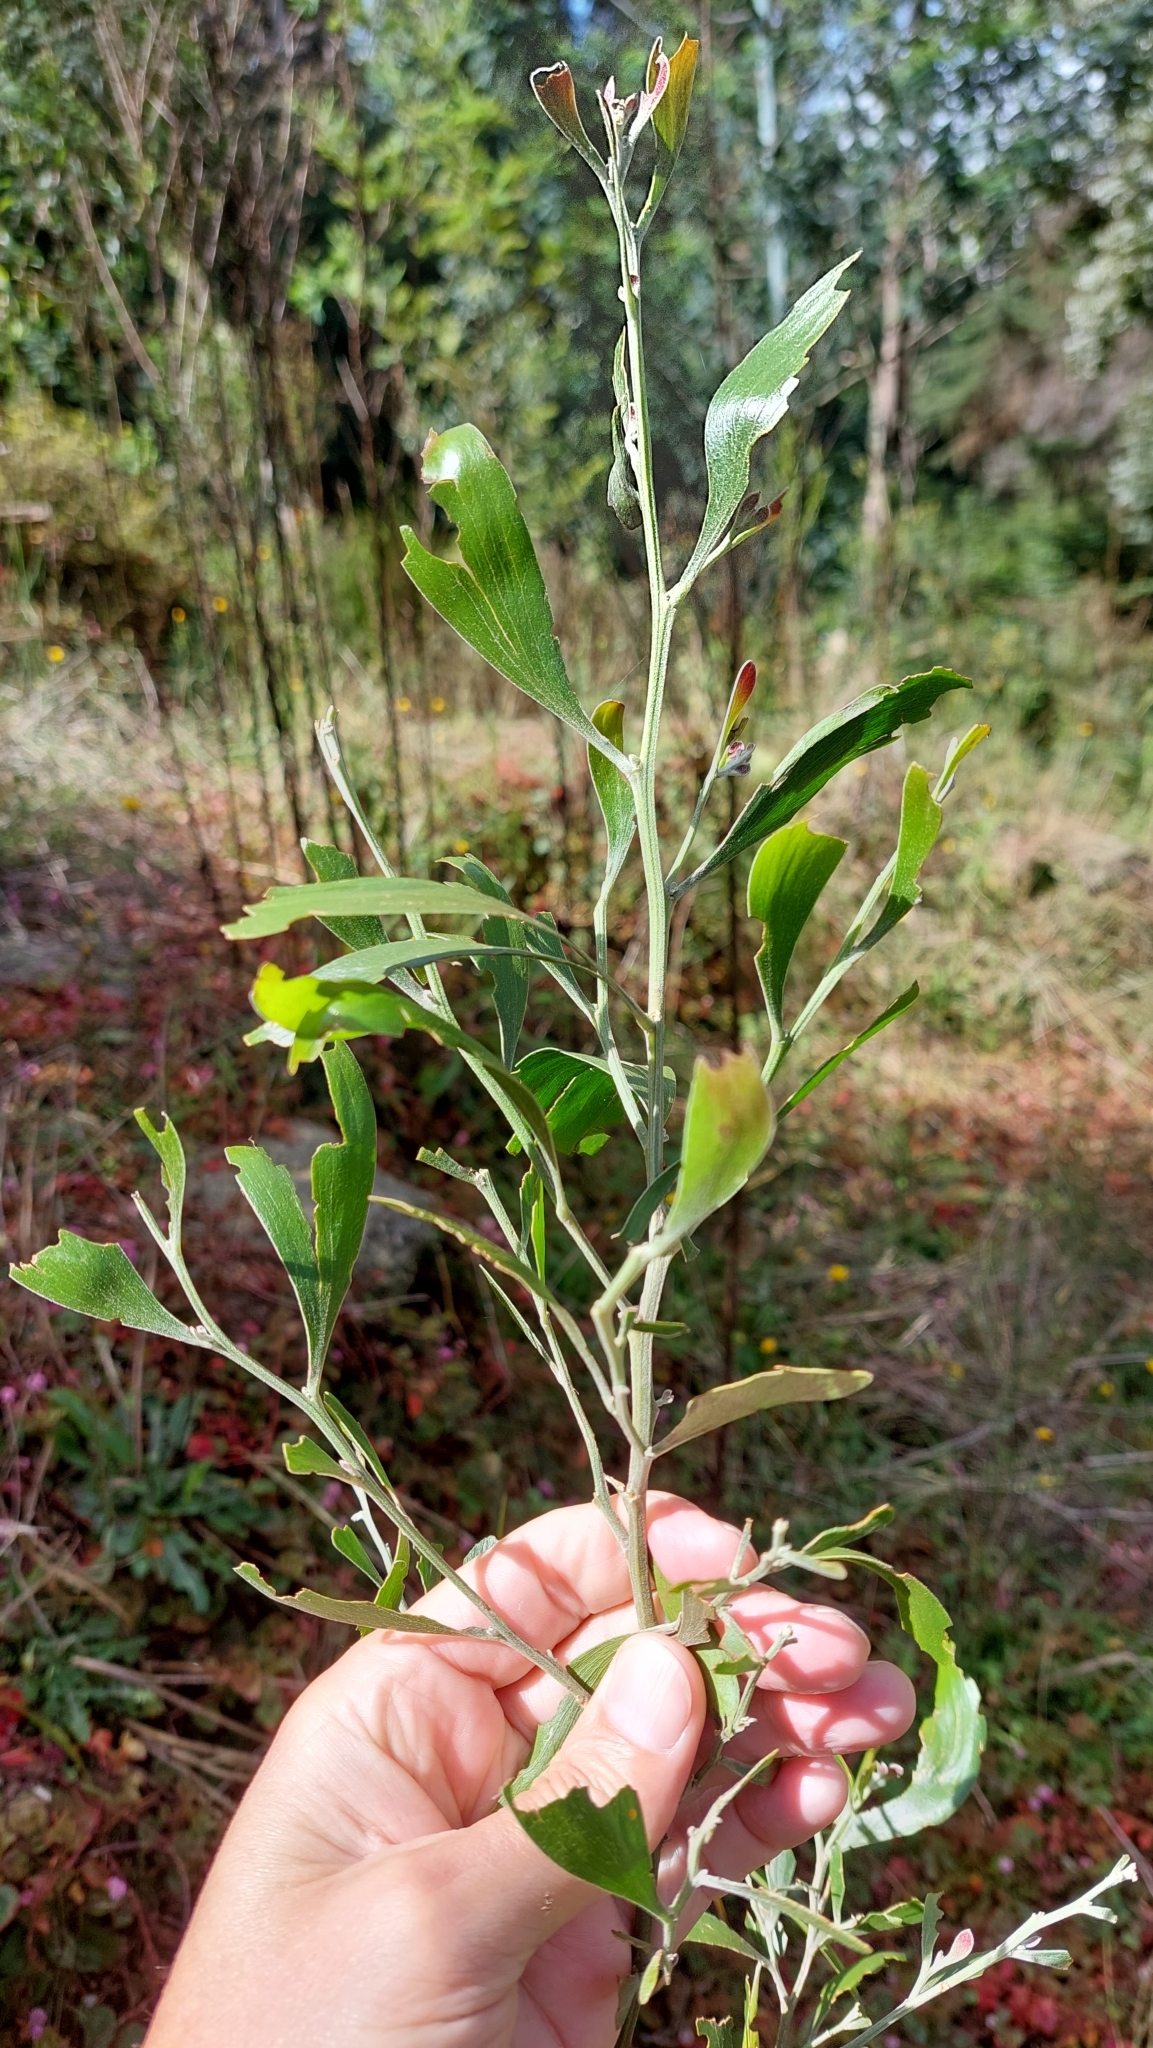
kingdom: Plantae
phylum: Tracheophyta
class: Magnoliopsida
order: Fabales
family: Fabaceae
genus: Acacia
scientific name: Acacia melanoxylon
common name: Blackwood
